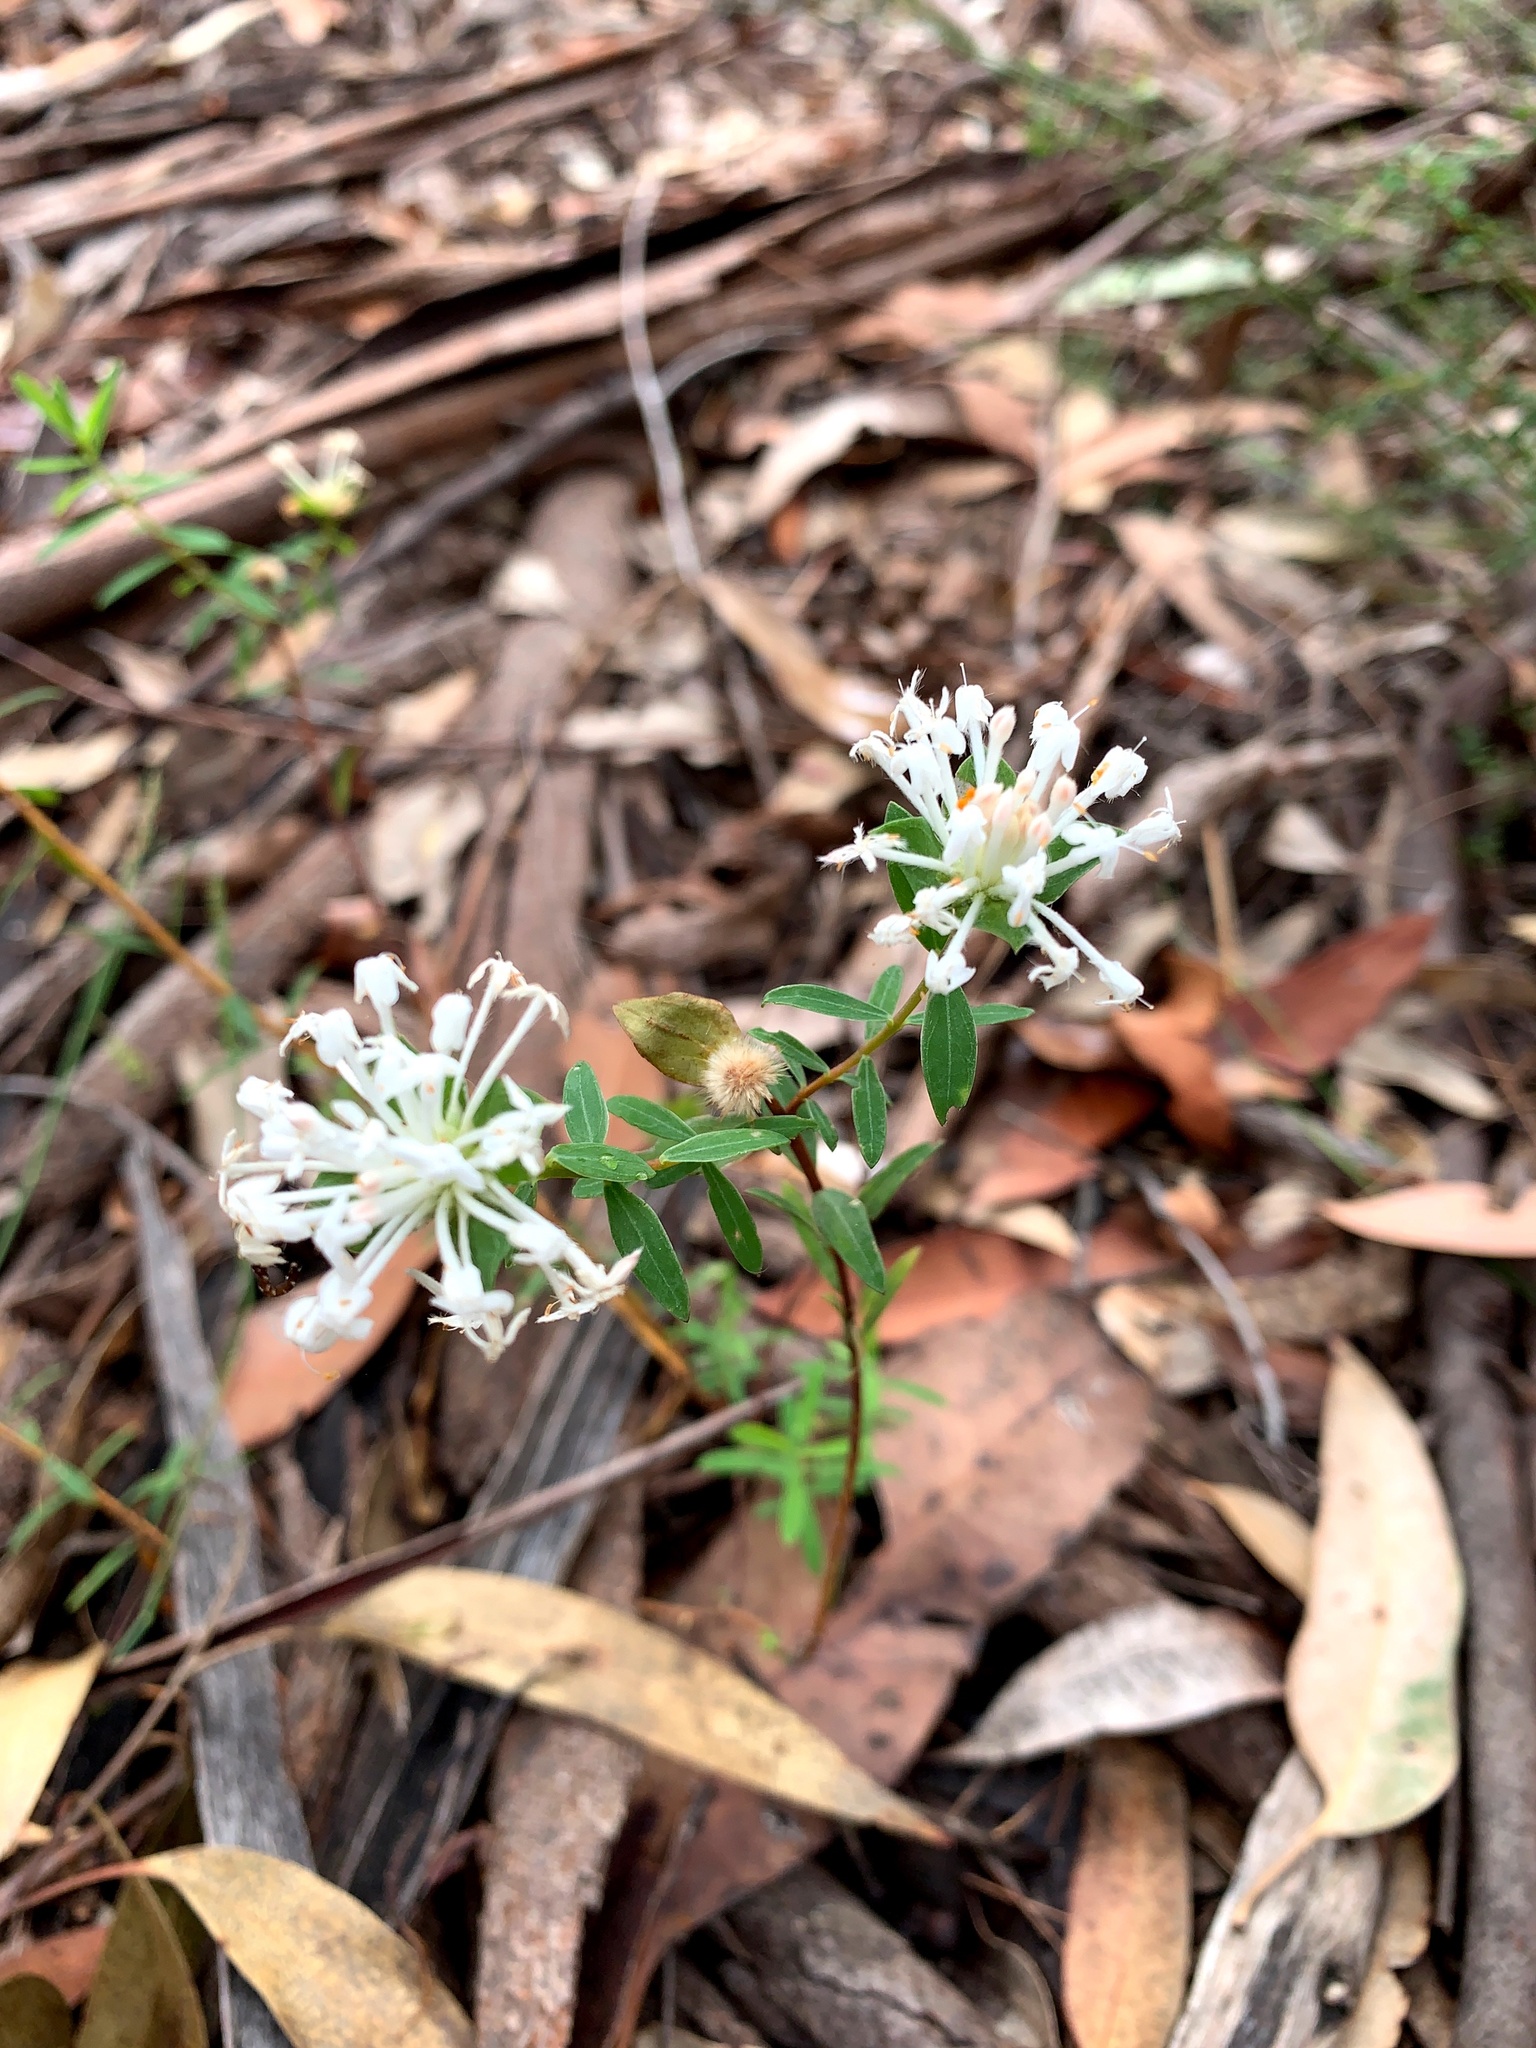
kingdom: Plantae
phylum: Tracheophyta
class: Magnoliopsida
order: Malvales
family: Thymelaeaceae
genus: Pimelea
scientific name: Pimelea linifolia
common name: Queen-of-the-bush
